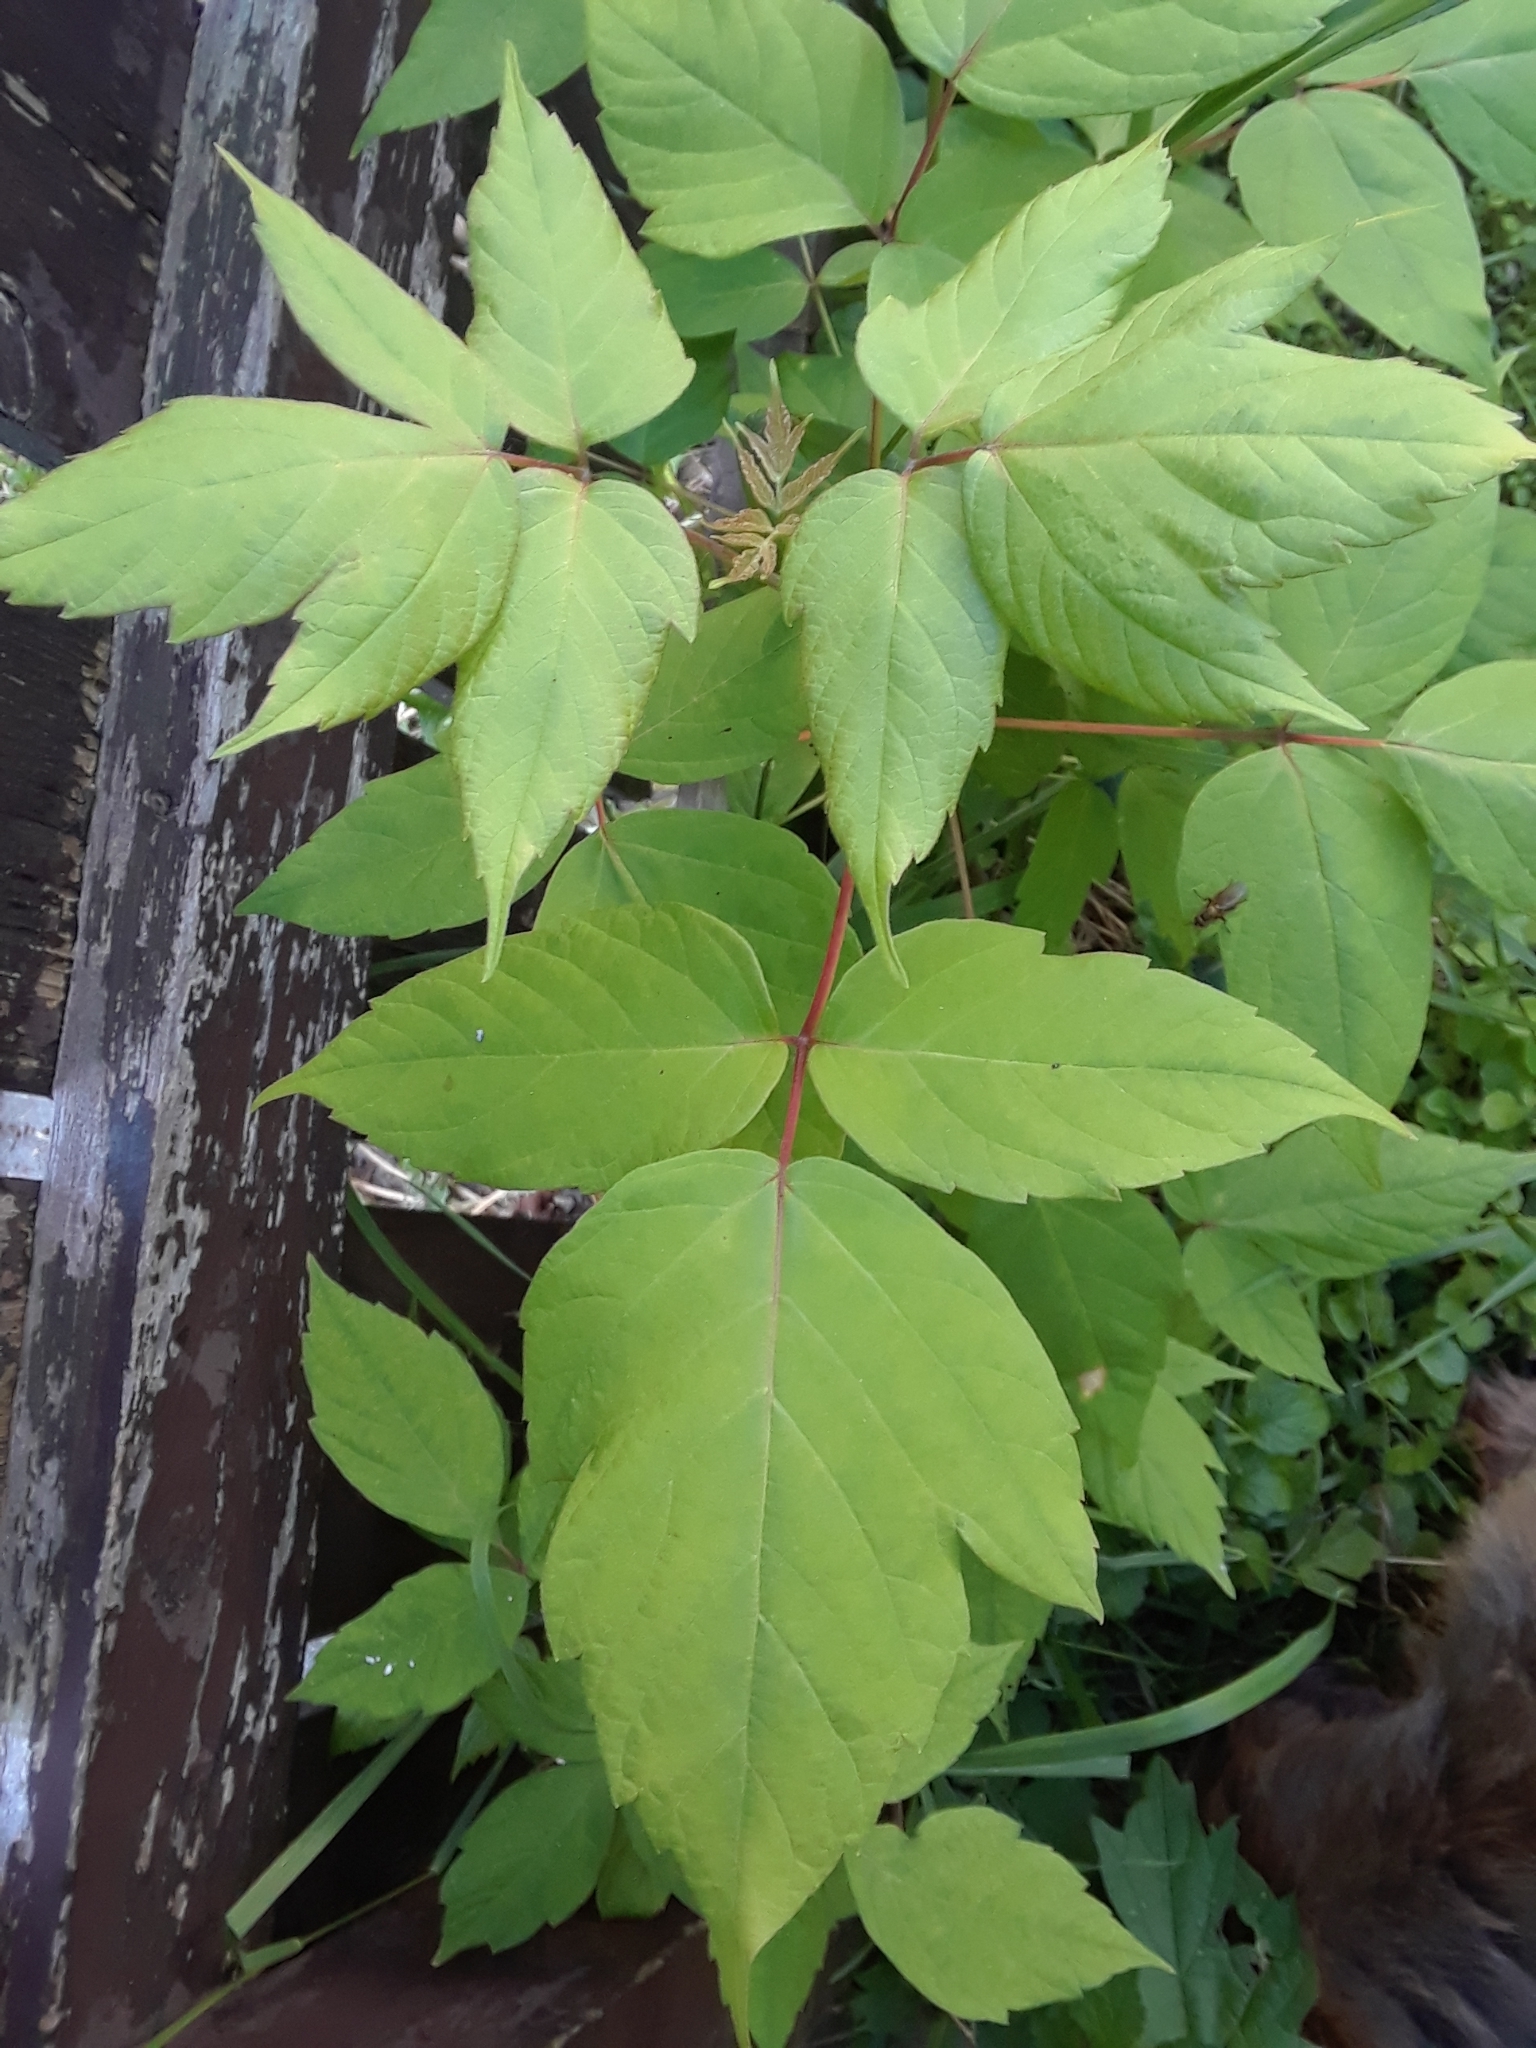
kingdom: Plantae
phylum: Tracheophyta
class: Magnoliopsida
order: Sapindales
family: Sapindaceae
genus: Acer
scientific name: Acer negundo
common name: Ashleaf maple
